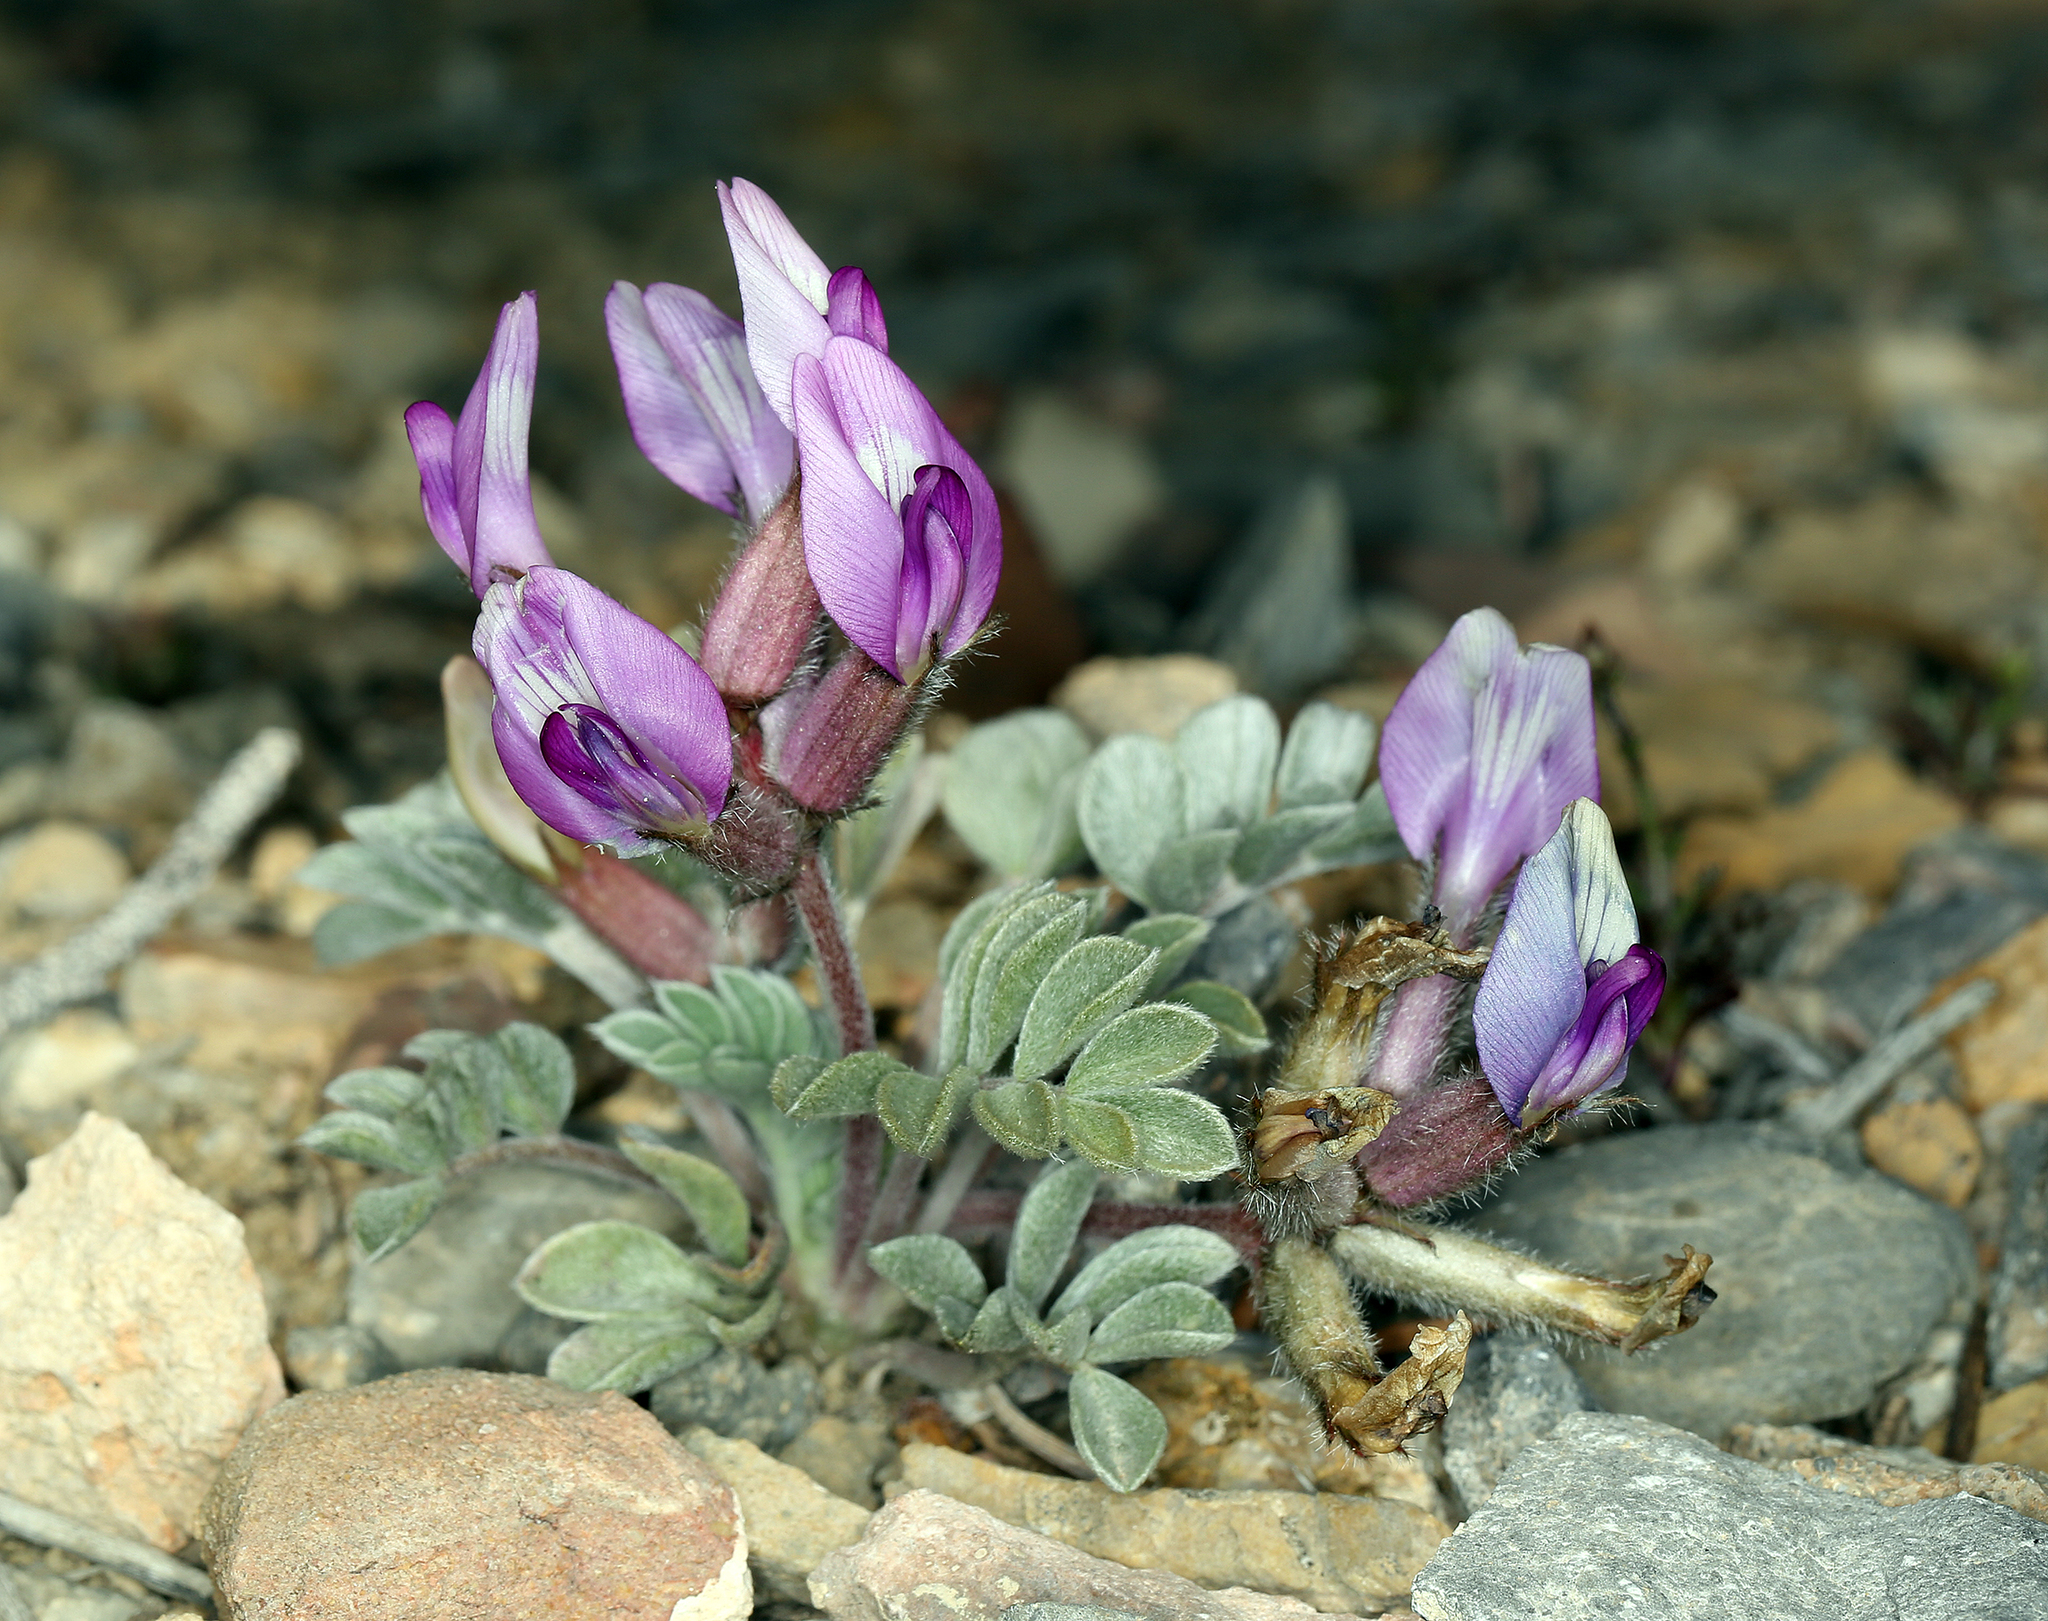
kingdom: Plantae
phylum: Tracheophyta
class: Magnoliopsida
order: Fabales
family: Fabaceae
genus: Astragalus
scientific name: Astragalus newberryi
